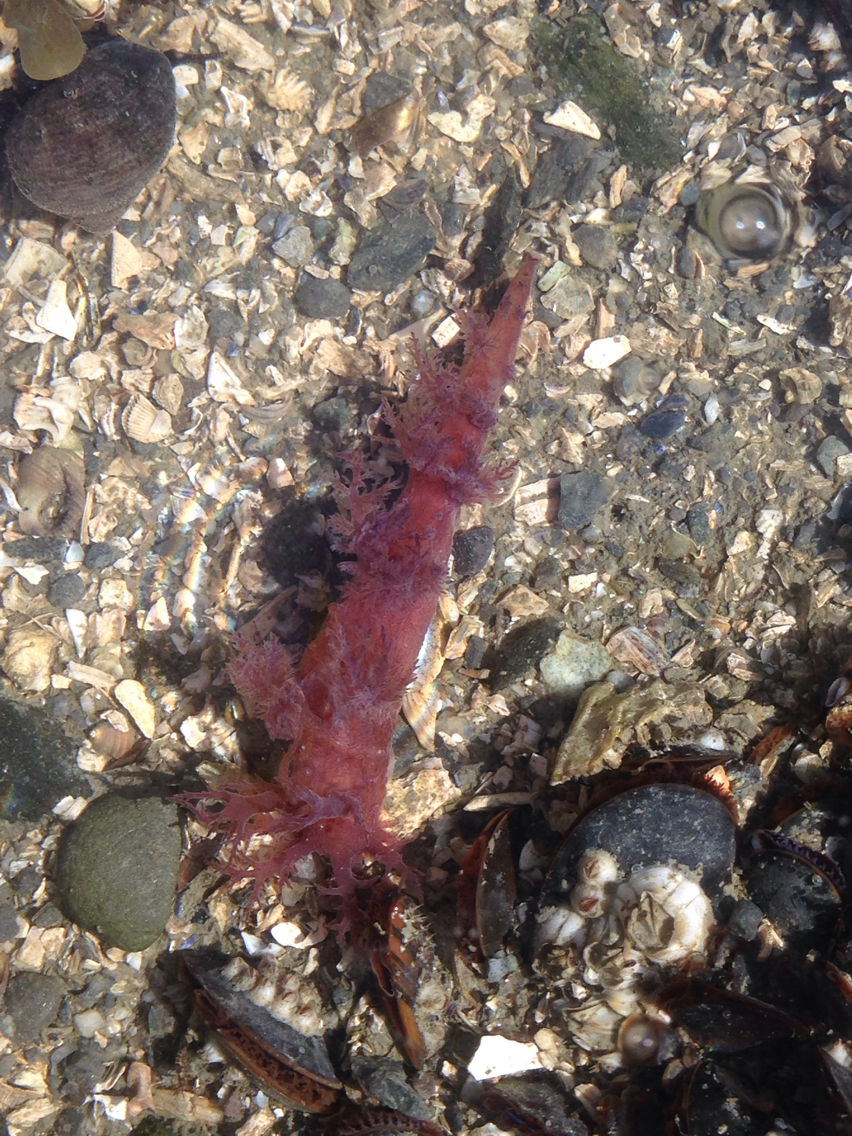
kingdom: Animalia
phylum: Mollusca
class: Gastropoda
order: Nudibranchia
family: Dendronotidae
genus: Dendronotus
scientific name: Dendronotus frondosus
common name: Bushy-backed nudibranch
